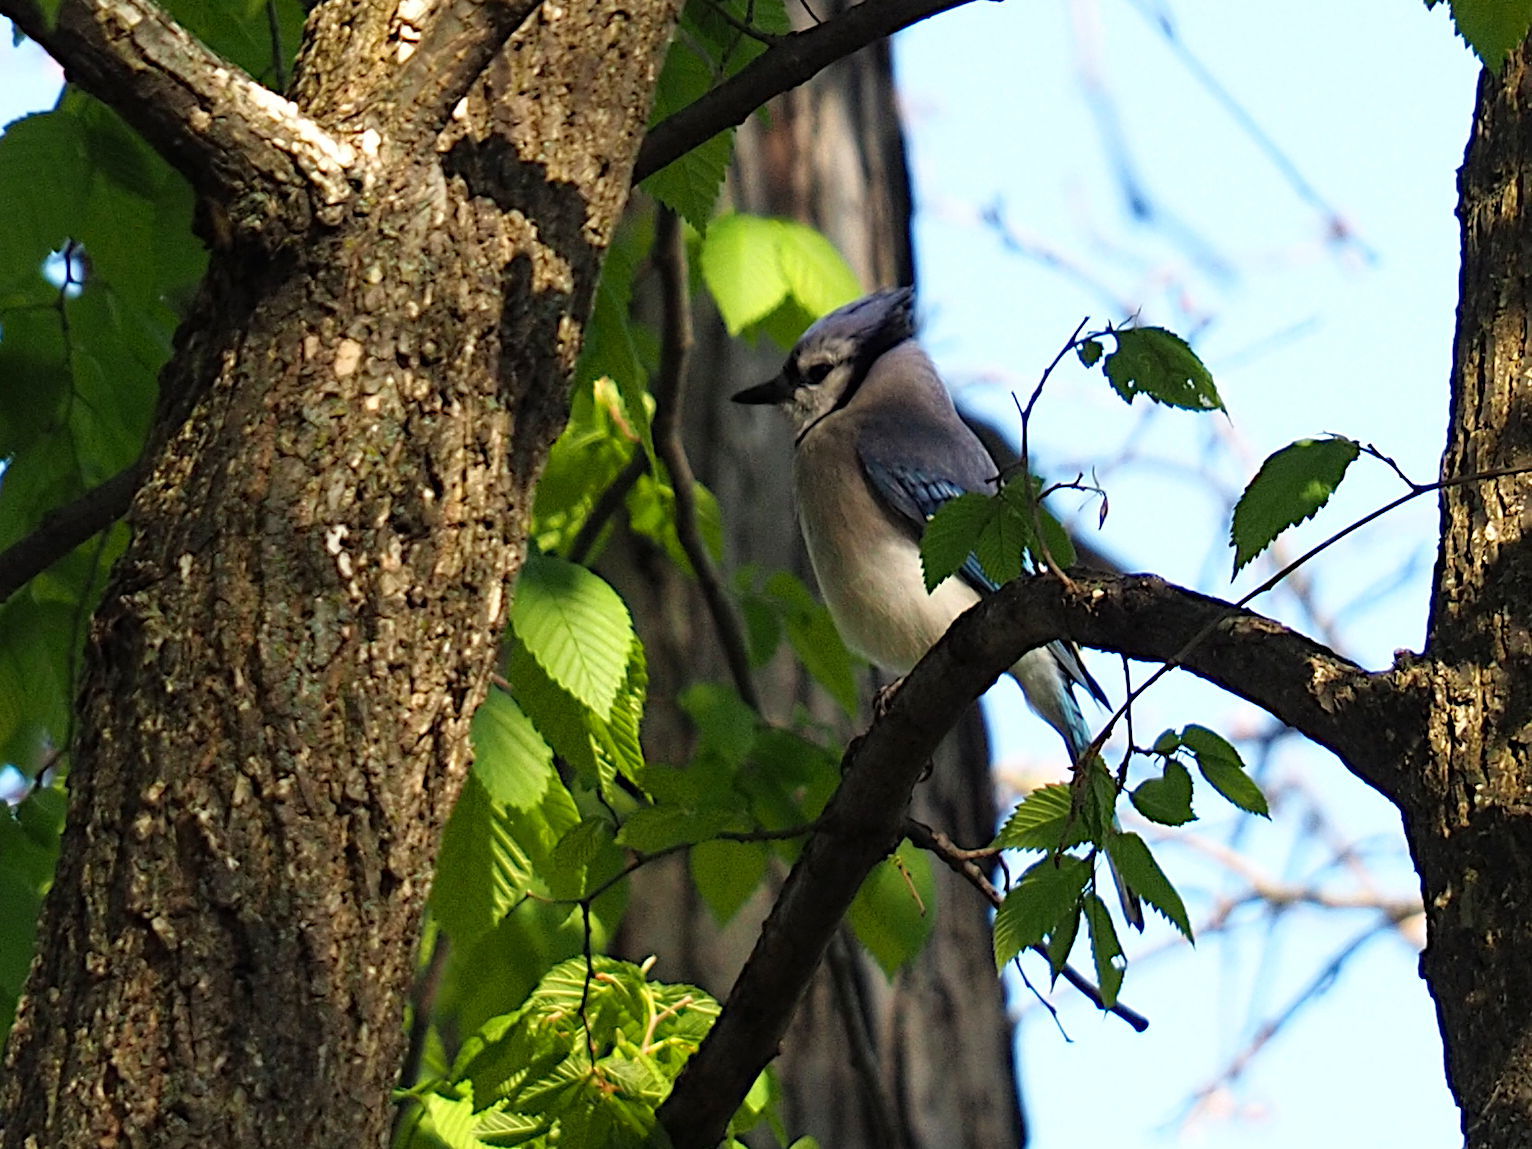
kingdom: Animalia
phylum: Chordata
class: Aves
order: Passeriformes
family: Corvidae
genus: Cyanocitta
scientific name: Cyanocitta cristata
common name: Blue jay
